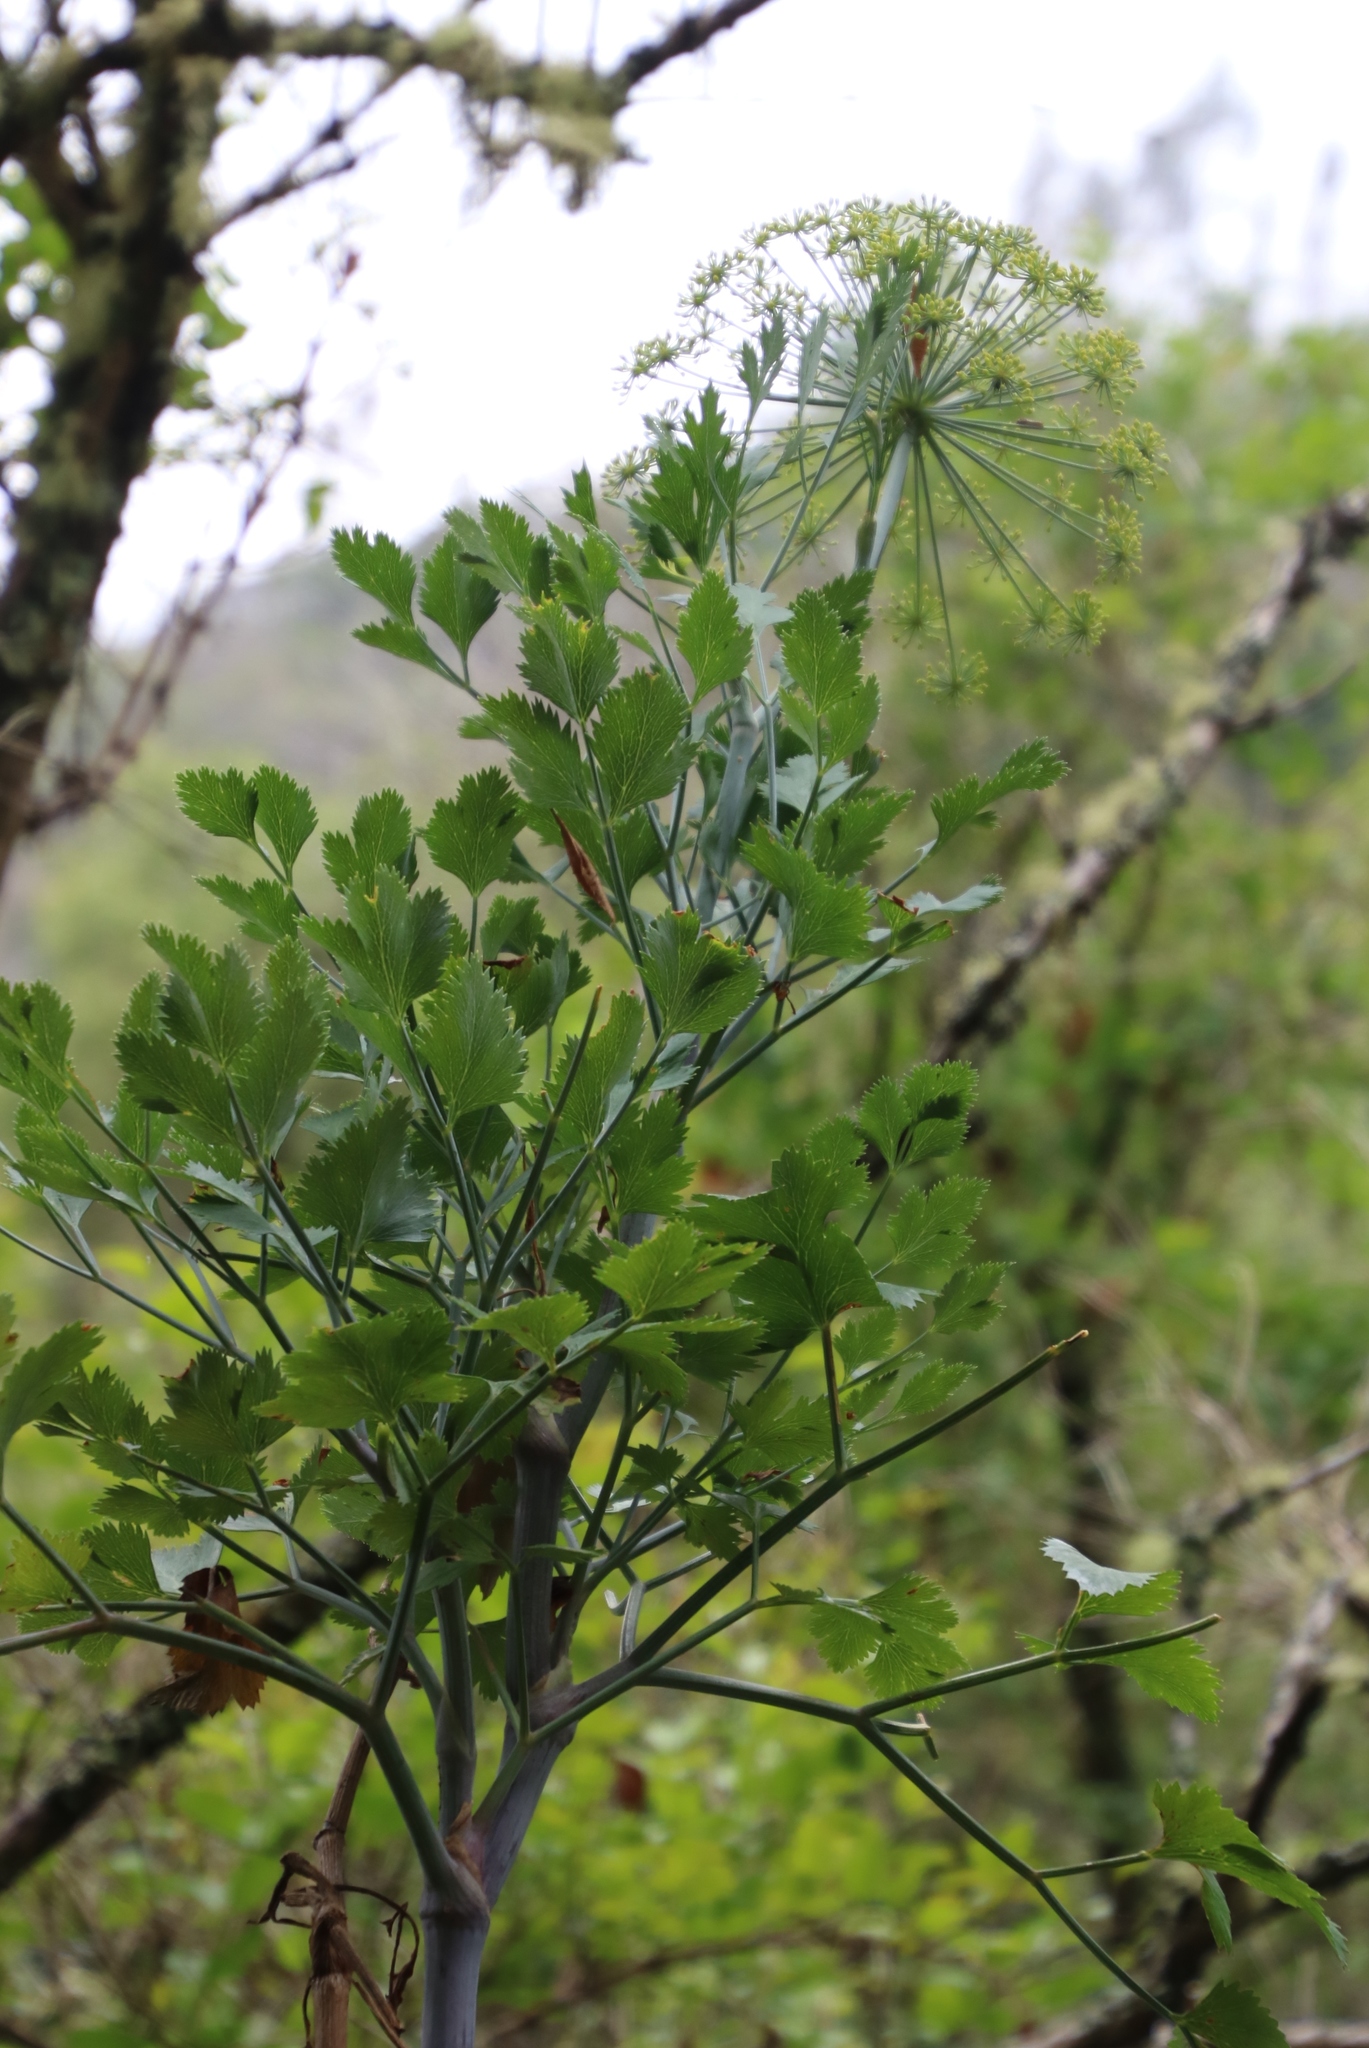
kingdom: Plantae
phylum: Tracheophyta
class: Magnoliopsida
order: Apiales
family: Apiaceae
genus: Notobubon
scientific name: Notobubon galbanum
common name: Blisterbush
